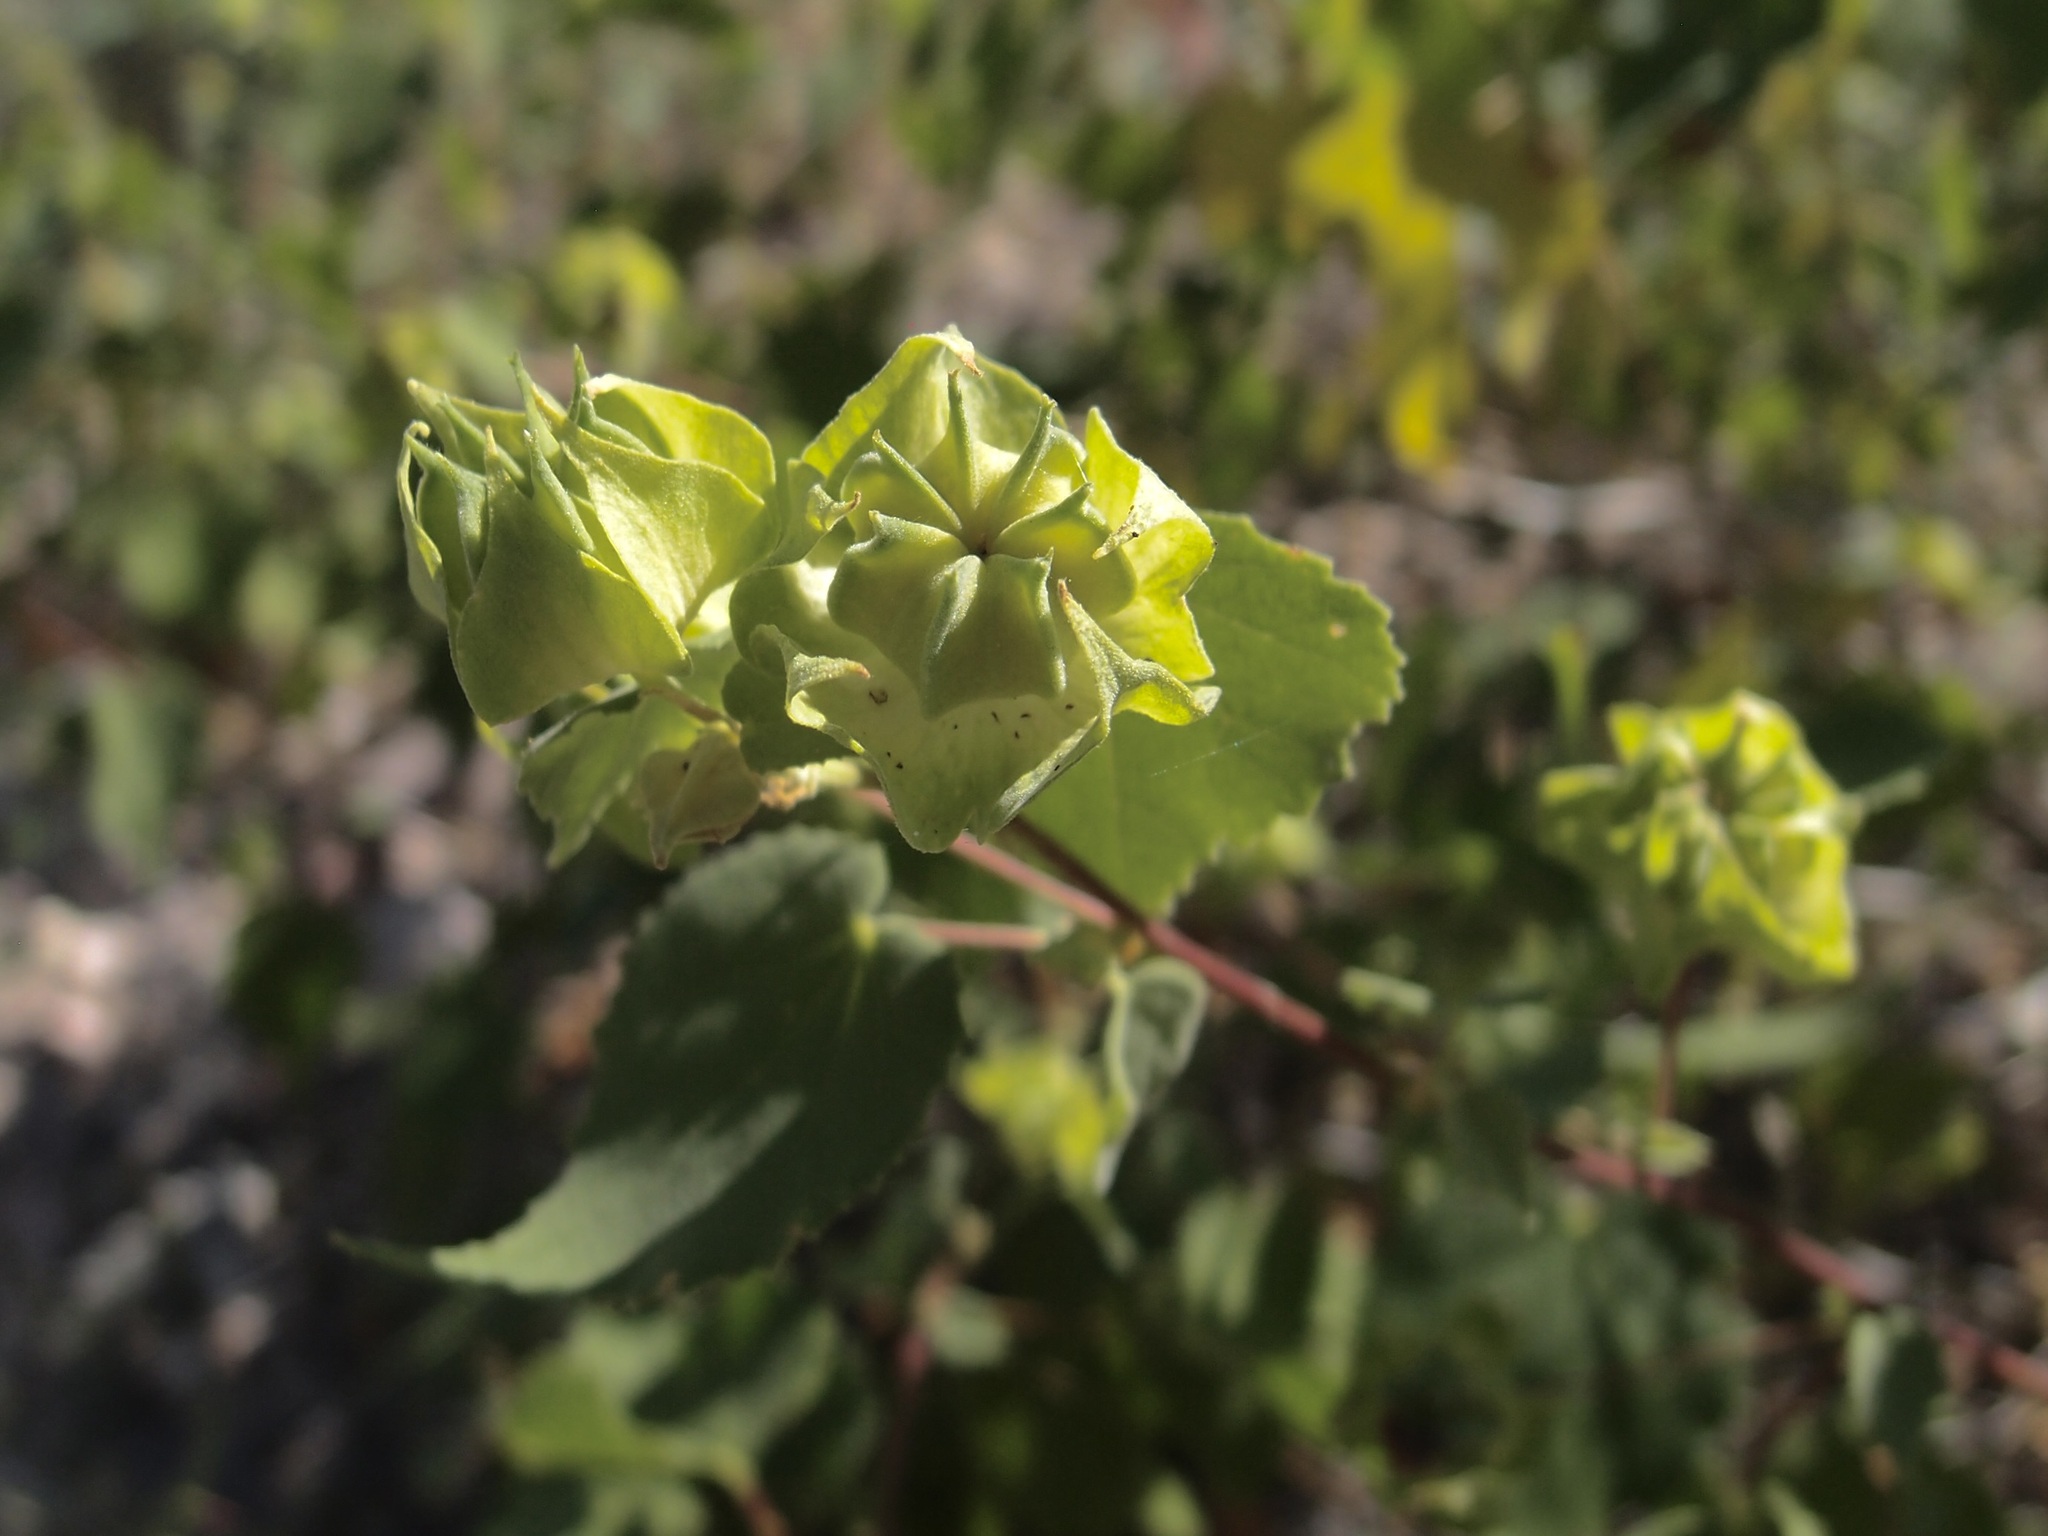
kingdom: Plantae
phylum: Tracheophyta
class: Magnoliopsida
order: Malvales
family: Malvaceae
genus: Abutilon
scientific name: Abutilon abutiloides
